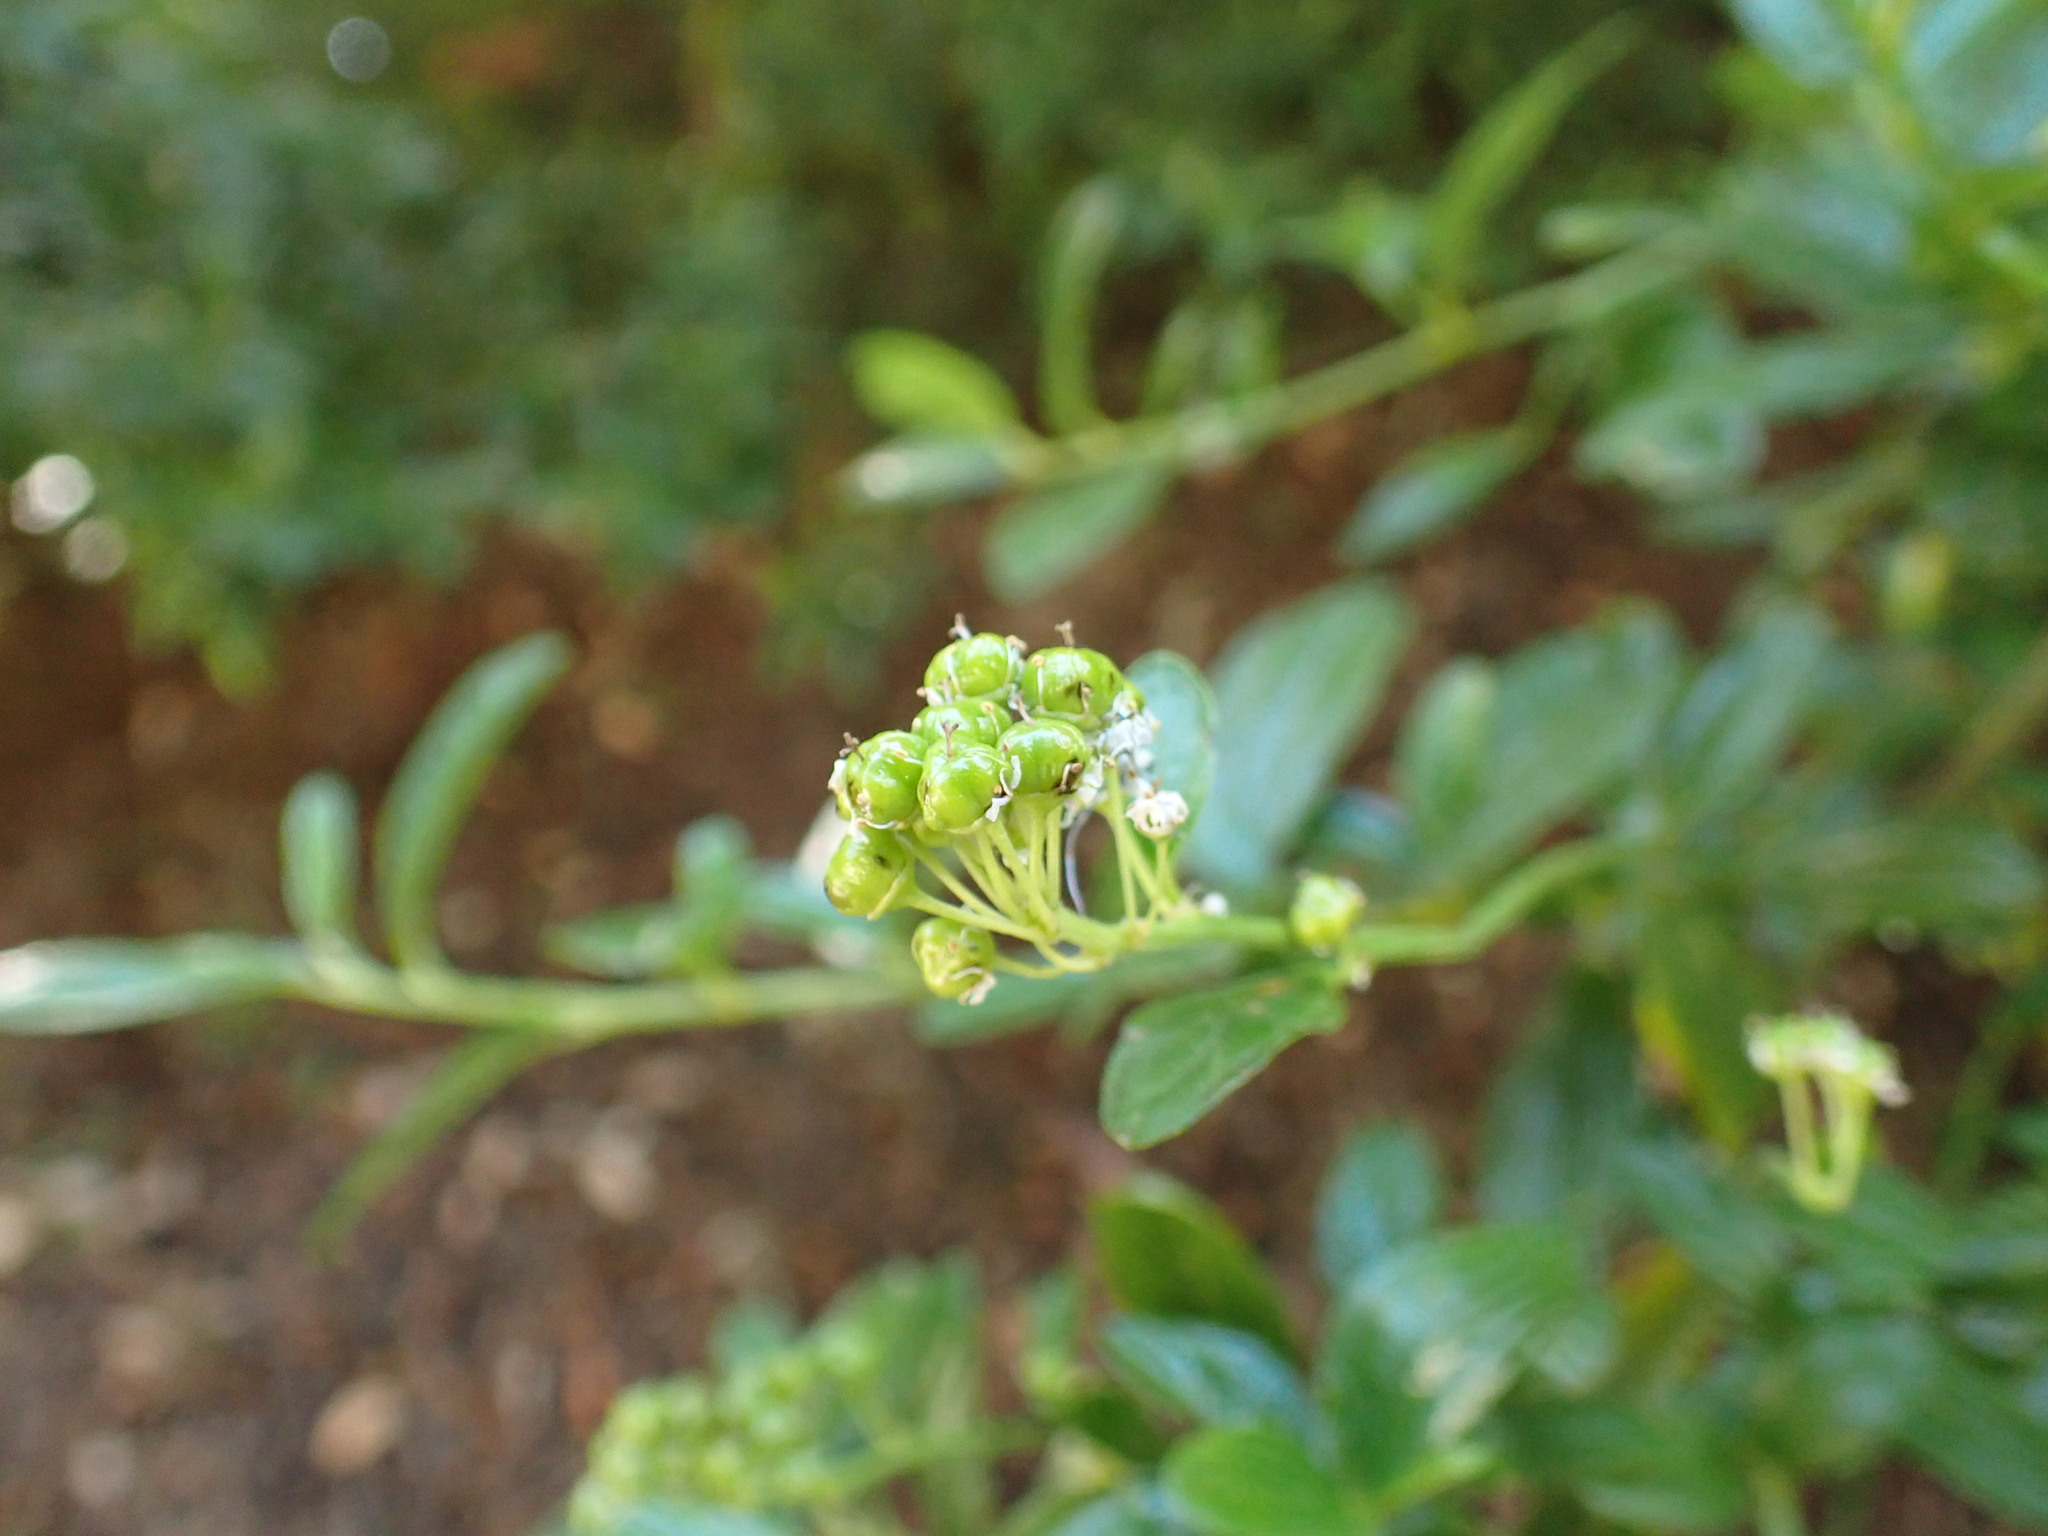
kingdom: Plantae
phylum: Tracheophyta
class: Magnoliopsida
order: Rosales
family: Rhamnaceae
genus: Ceanothus
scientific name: Ceanothus thyrsiflorus
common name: California-lilac
